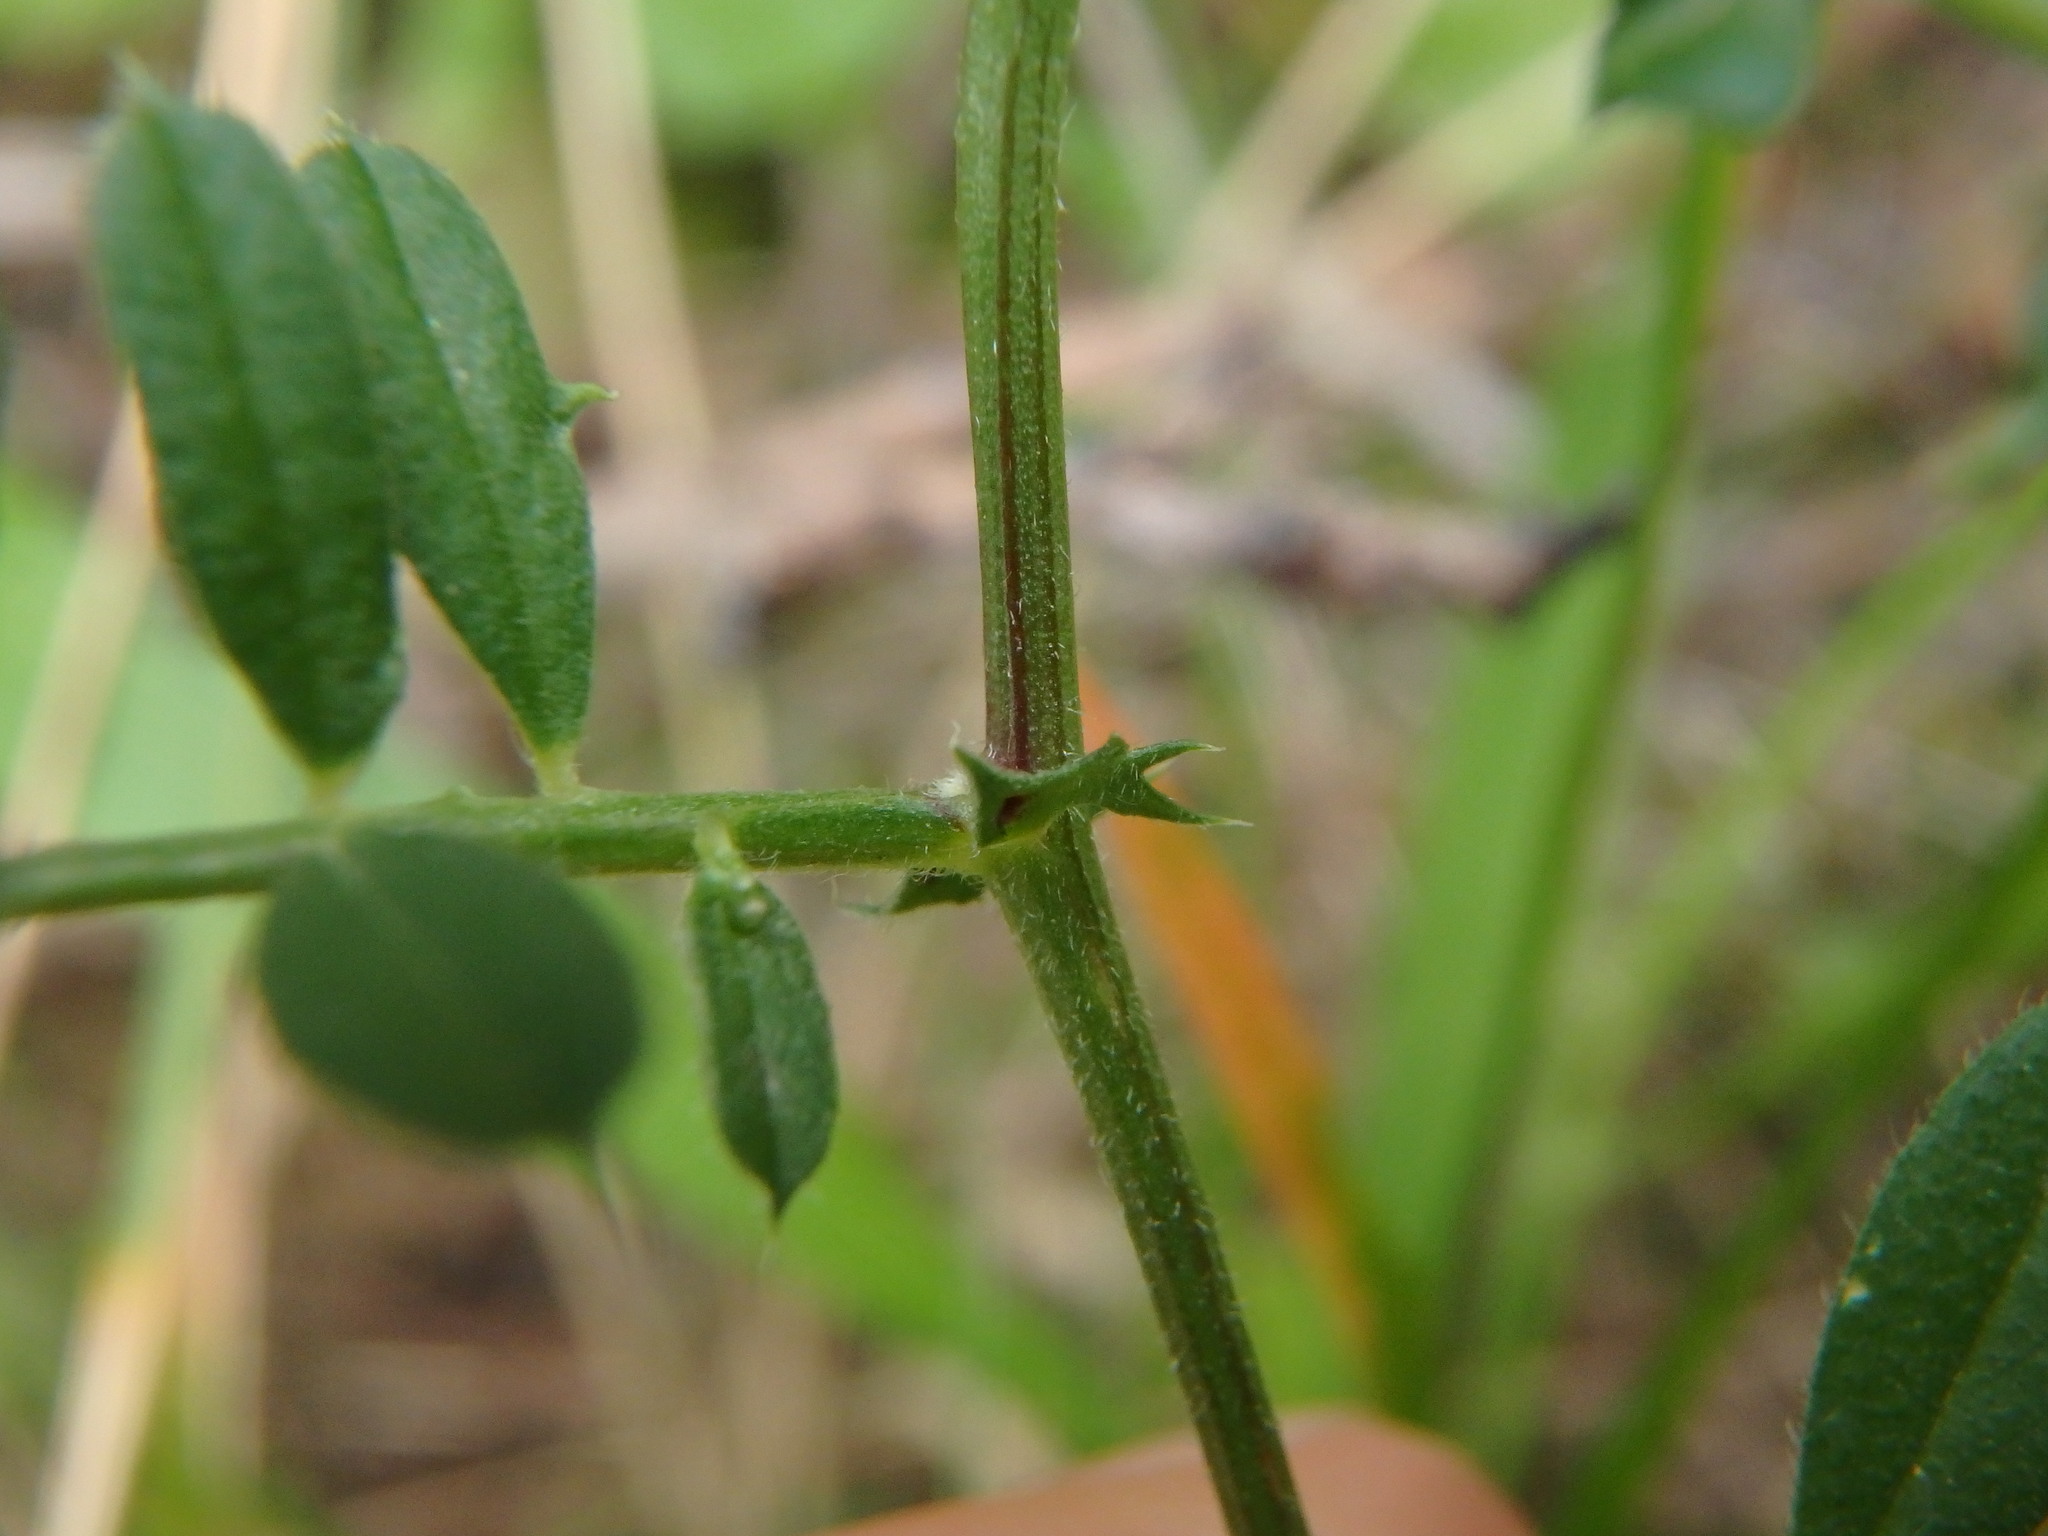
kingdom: Plantae
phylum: Tracheophyta
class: Magnoliopsida
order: Fabales
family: Fabaceae
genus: Vicia
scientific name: Vicia sativa
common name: Garden vetch
